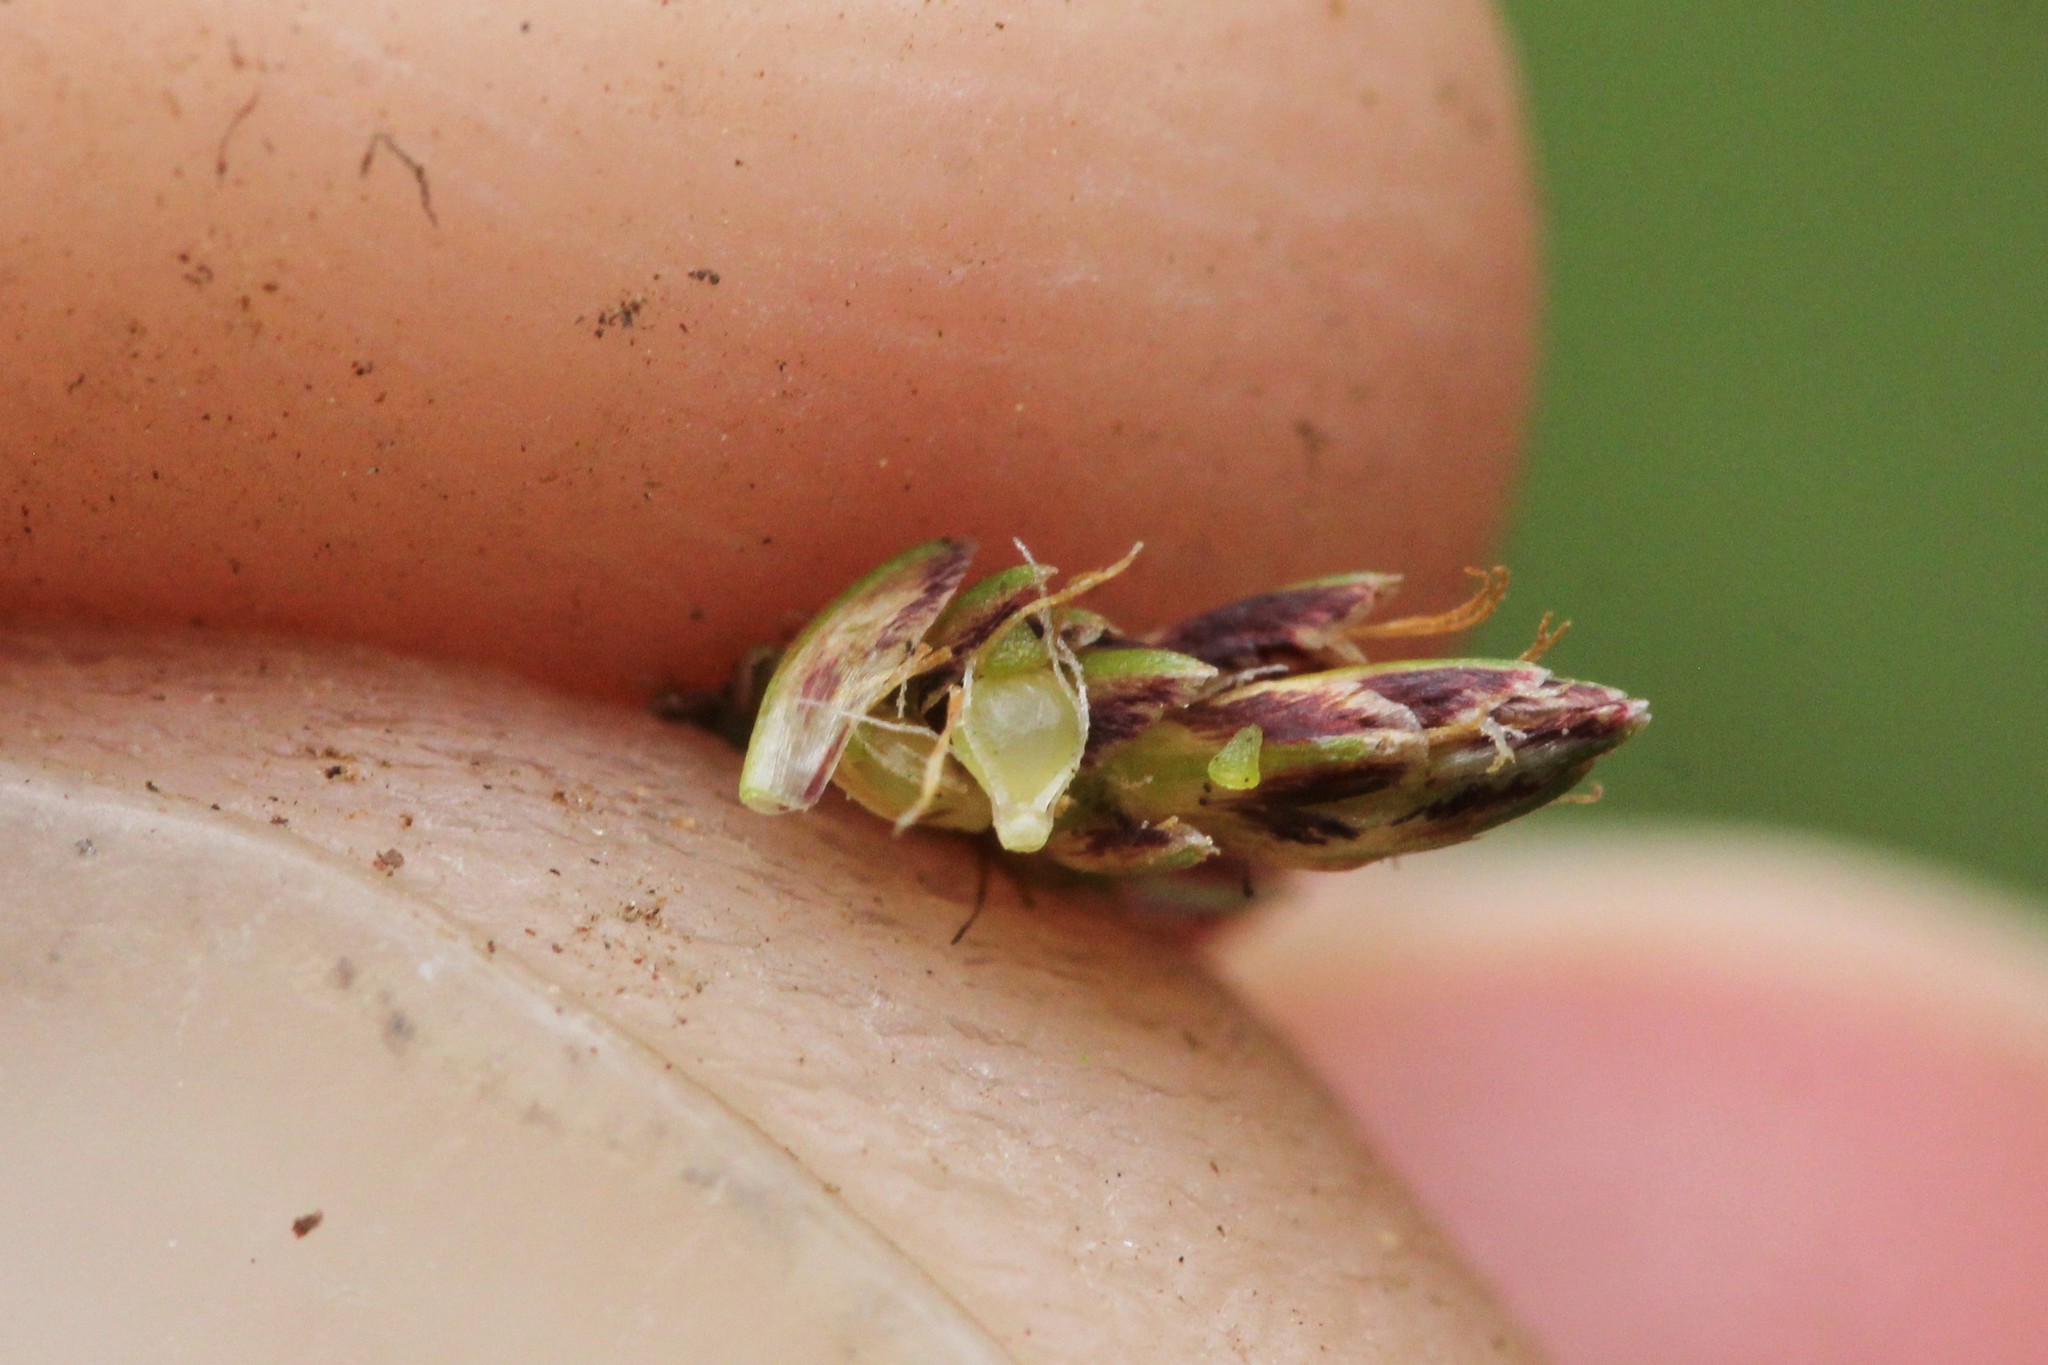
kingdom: Plantae
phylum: Tracheophyta
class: Liliopsida
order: Poales
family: Cyperaceae
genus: Eleocharis
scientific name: Eleocharis flavescens
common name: Yellow spikerush
